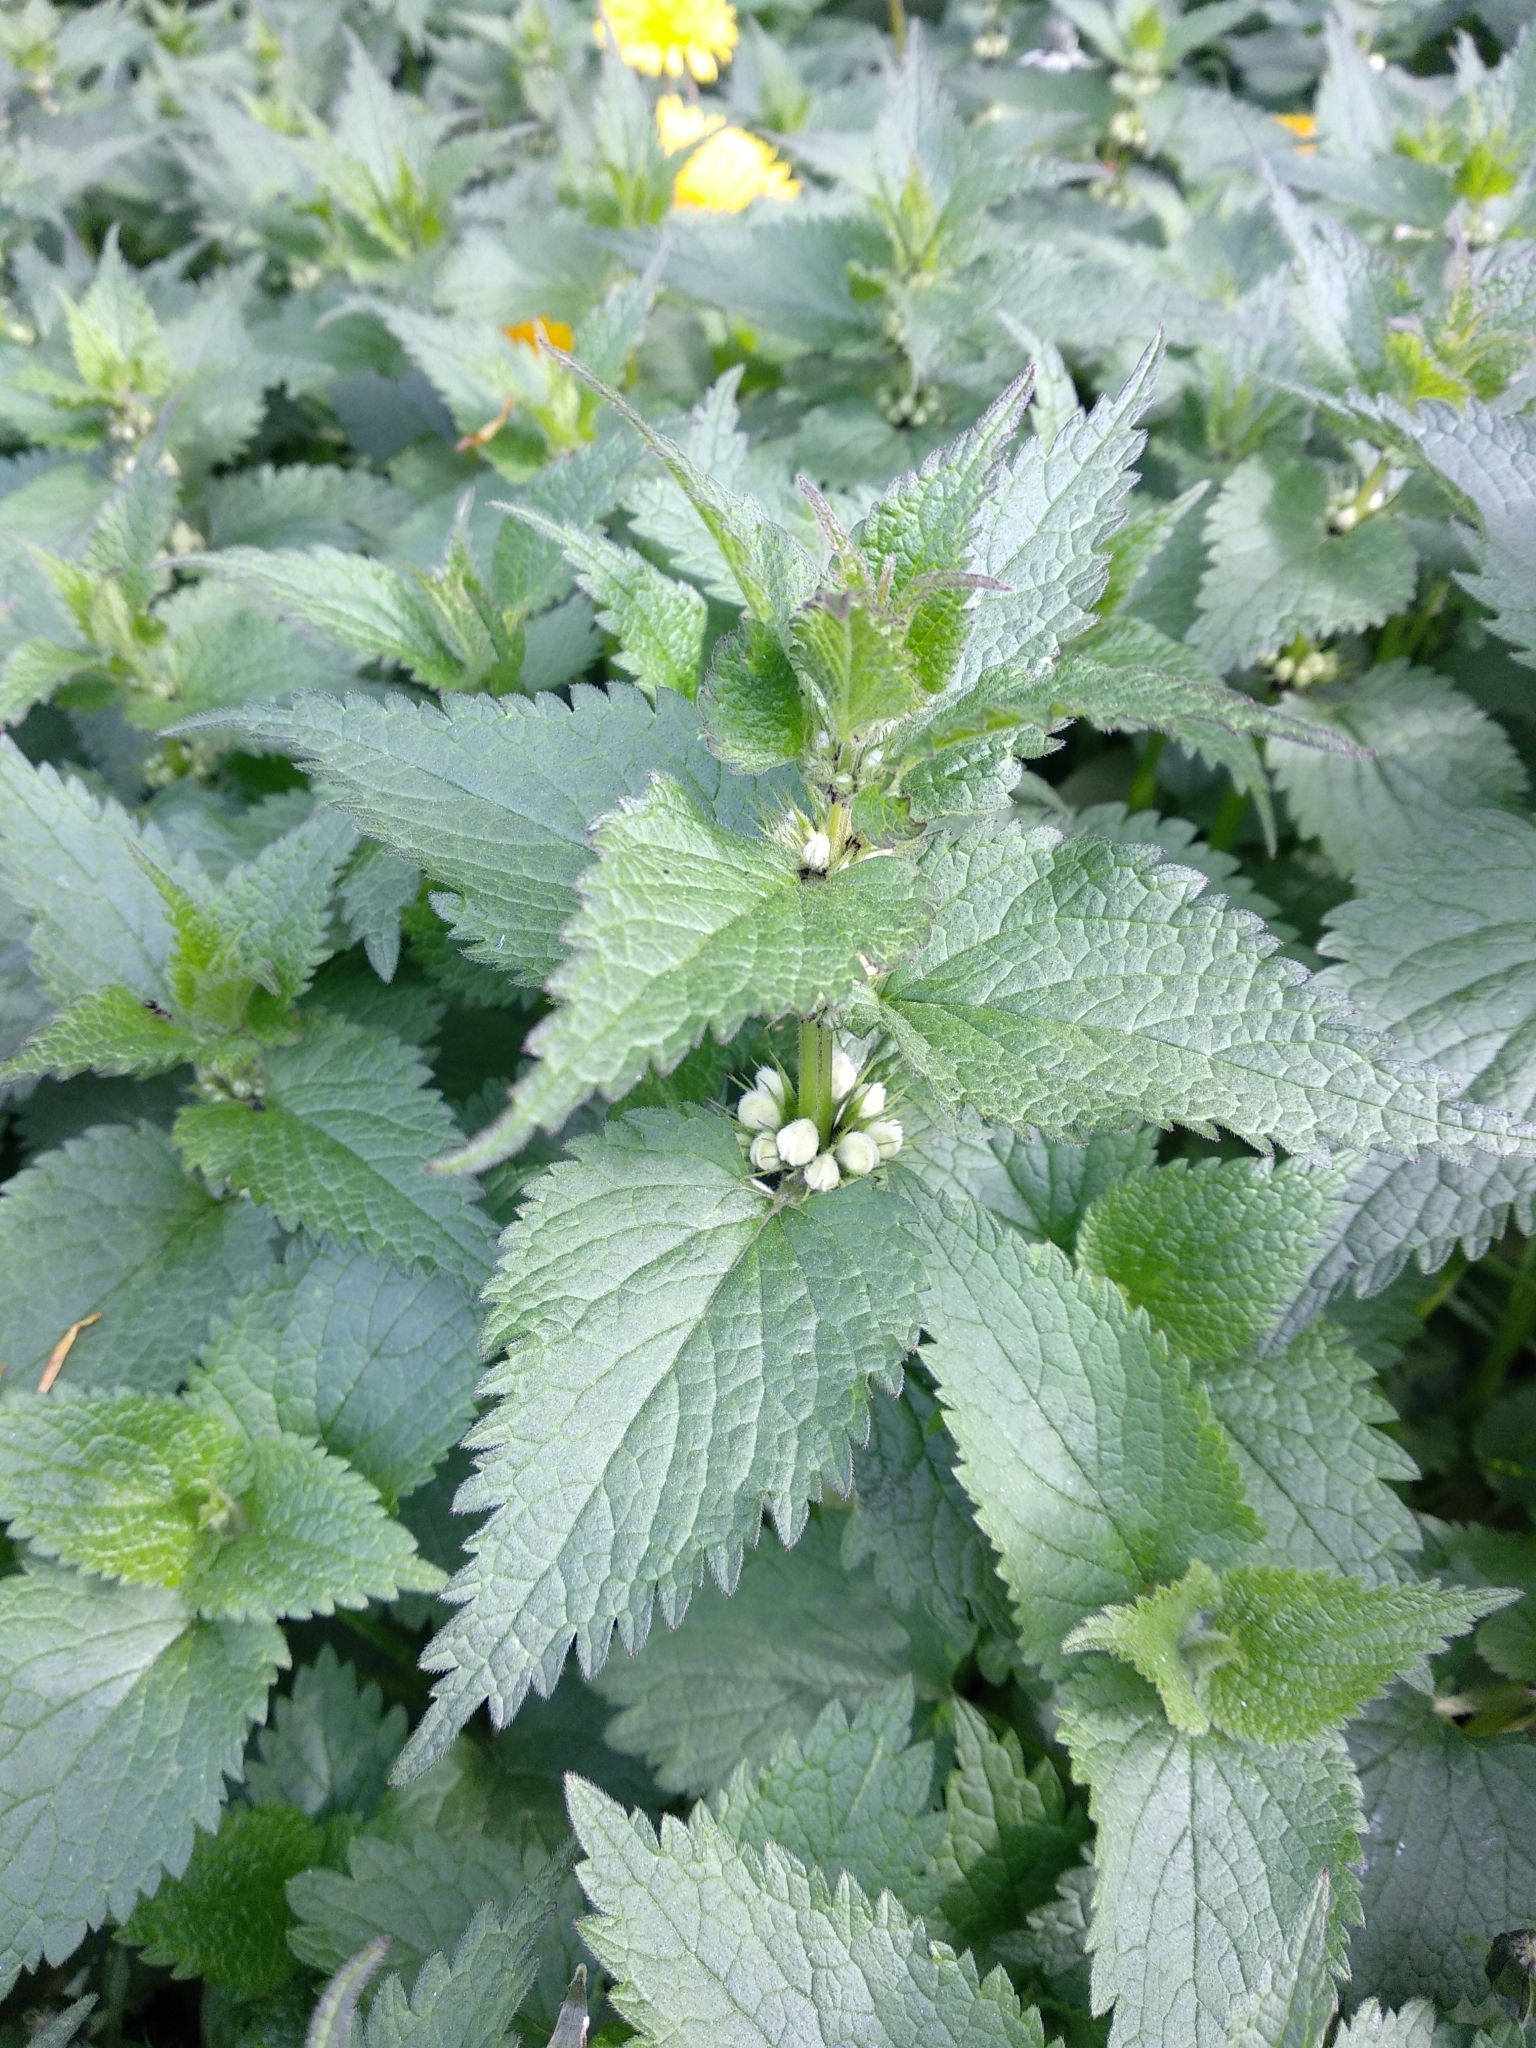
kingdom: Plantae
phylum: Tracheophyta
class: Magnoliopsida
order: Lamiales
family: Lamiaceae
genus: Lamium
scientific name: Lamium album
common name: White dead-nettle
